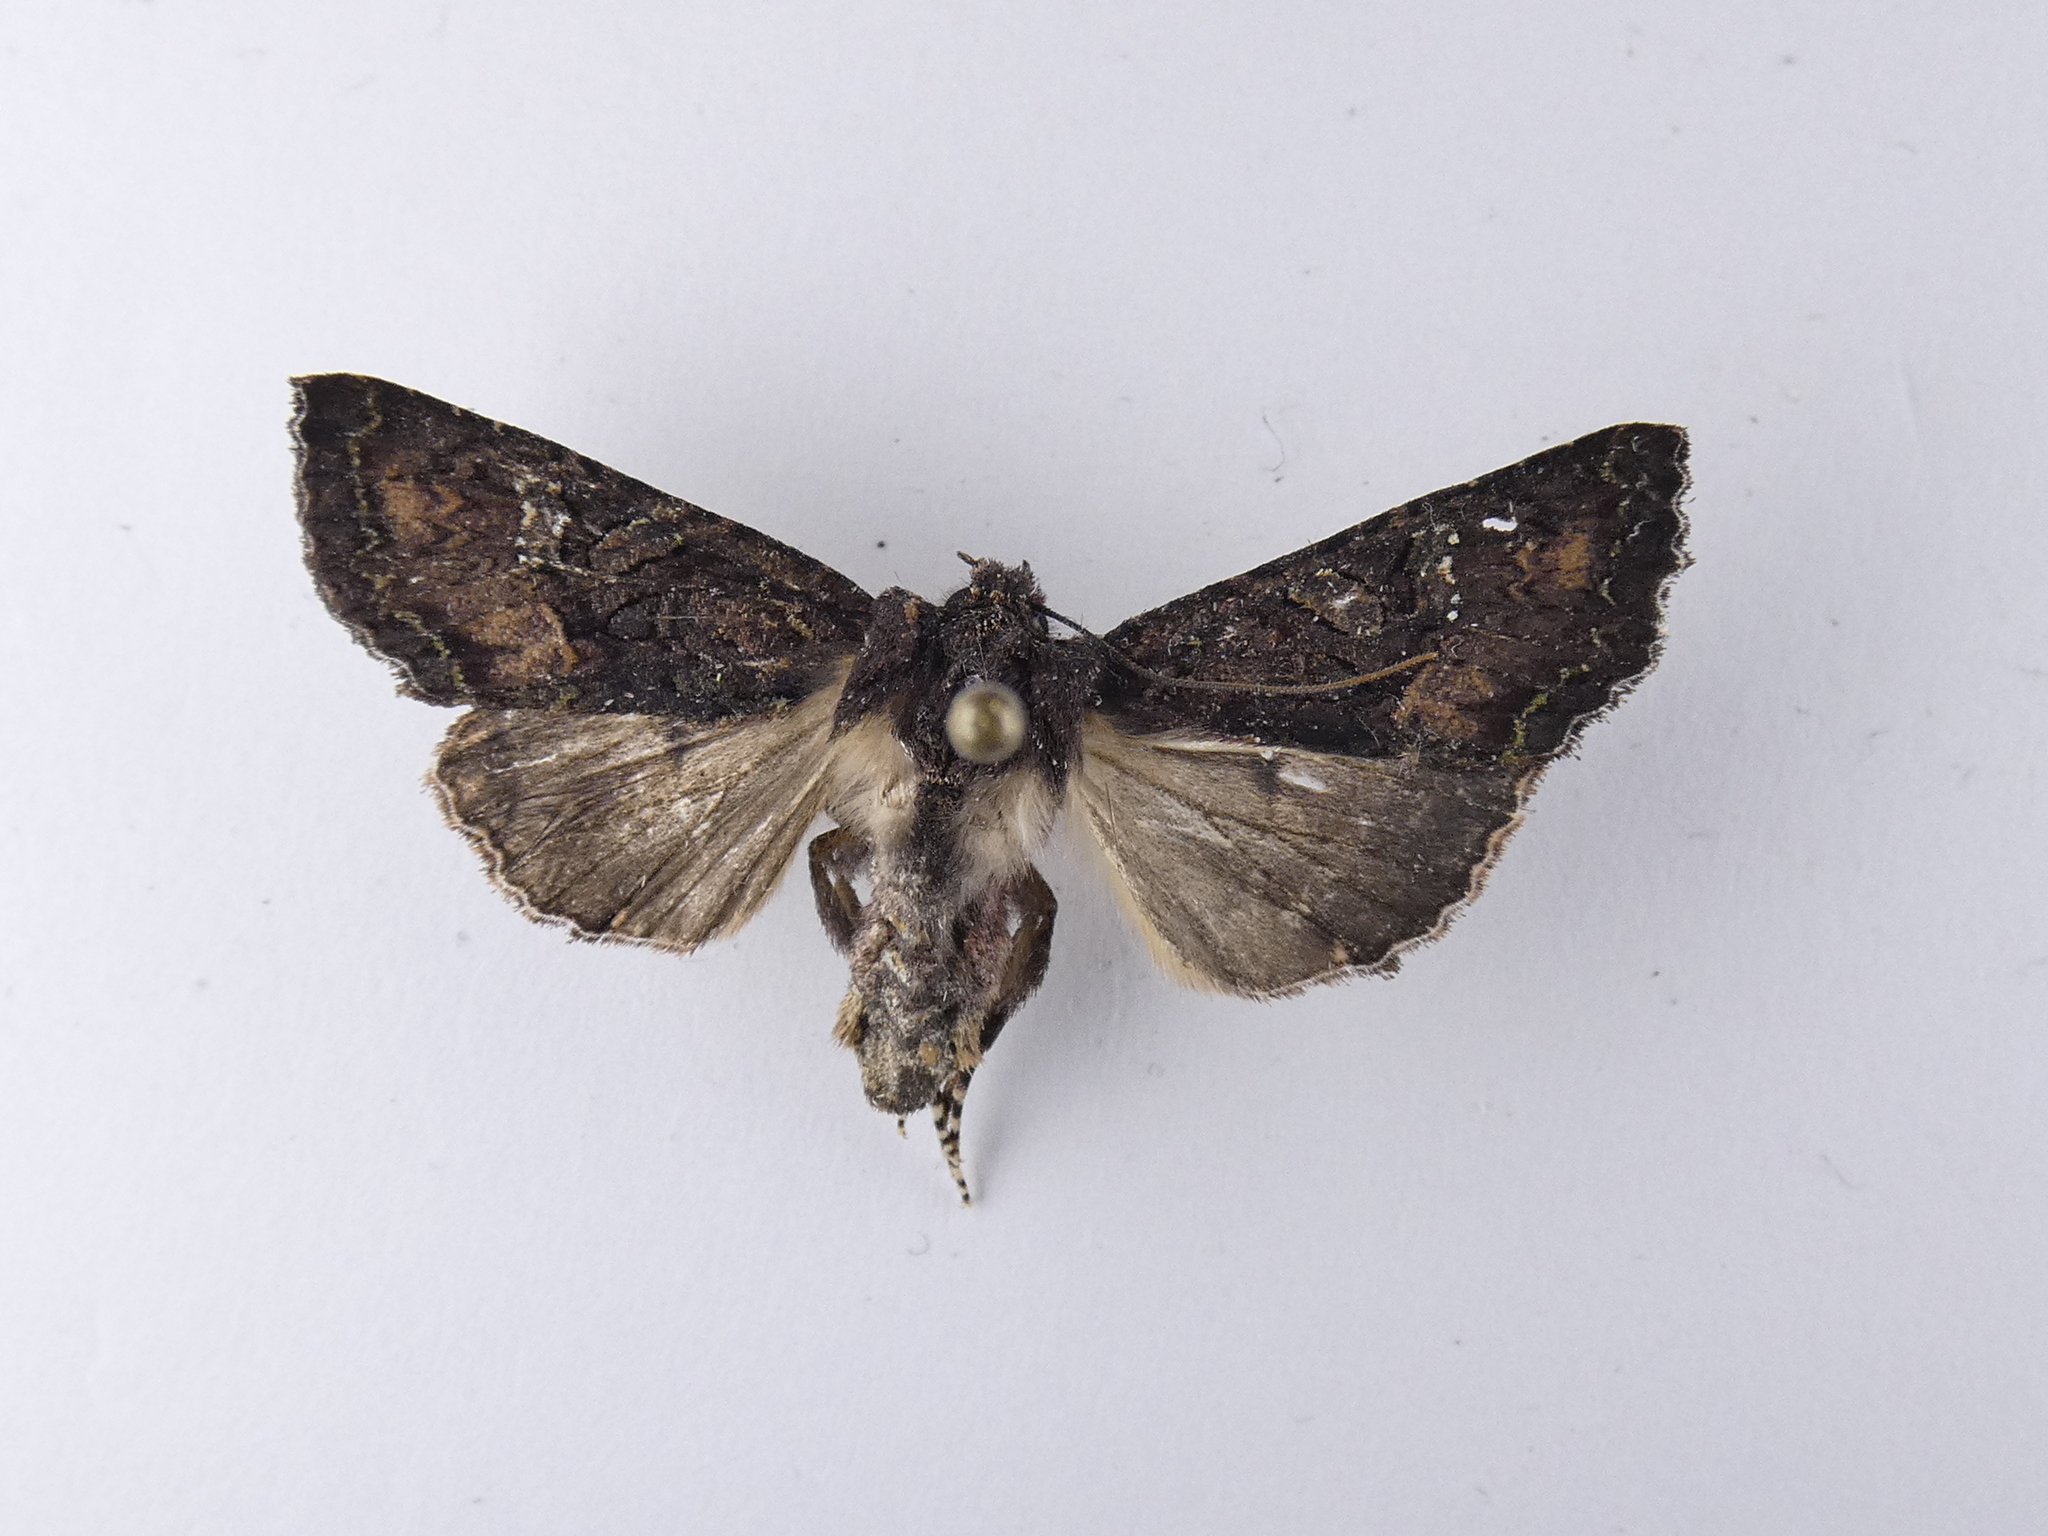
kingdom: Animalia
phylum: Arthropoda
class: Insecta
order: Lepidoptera
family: Noctuidae
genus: Meterana
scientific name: Meterana ochthistis
